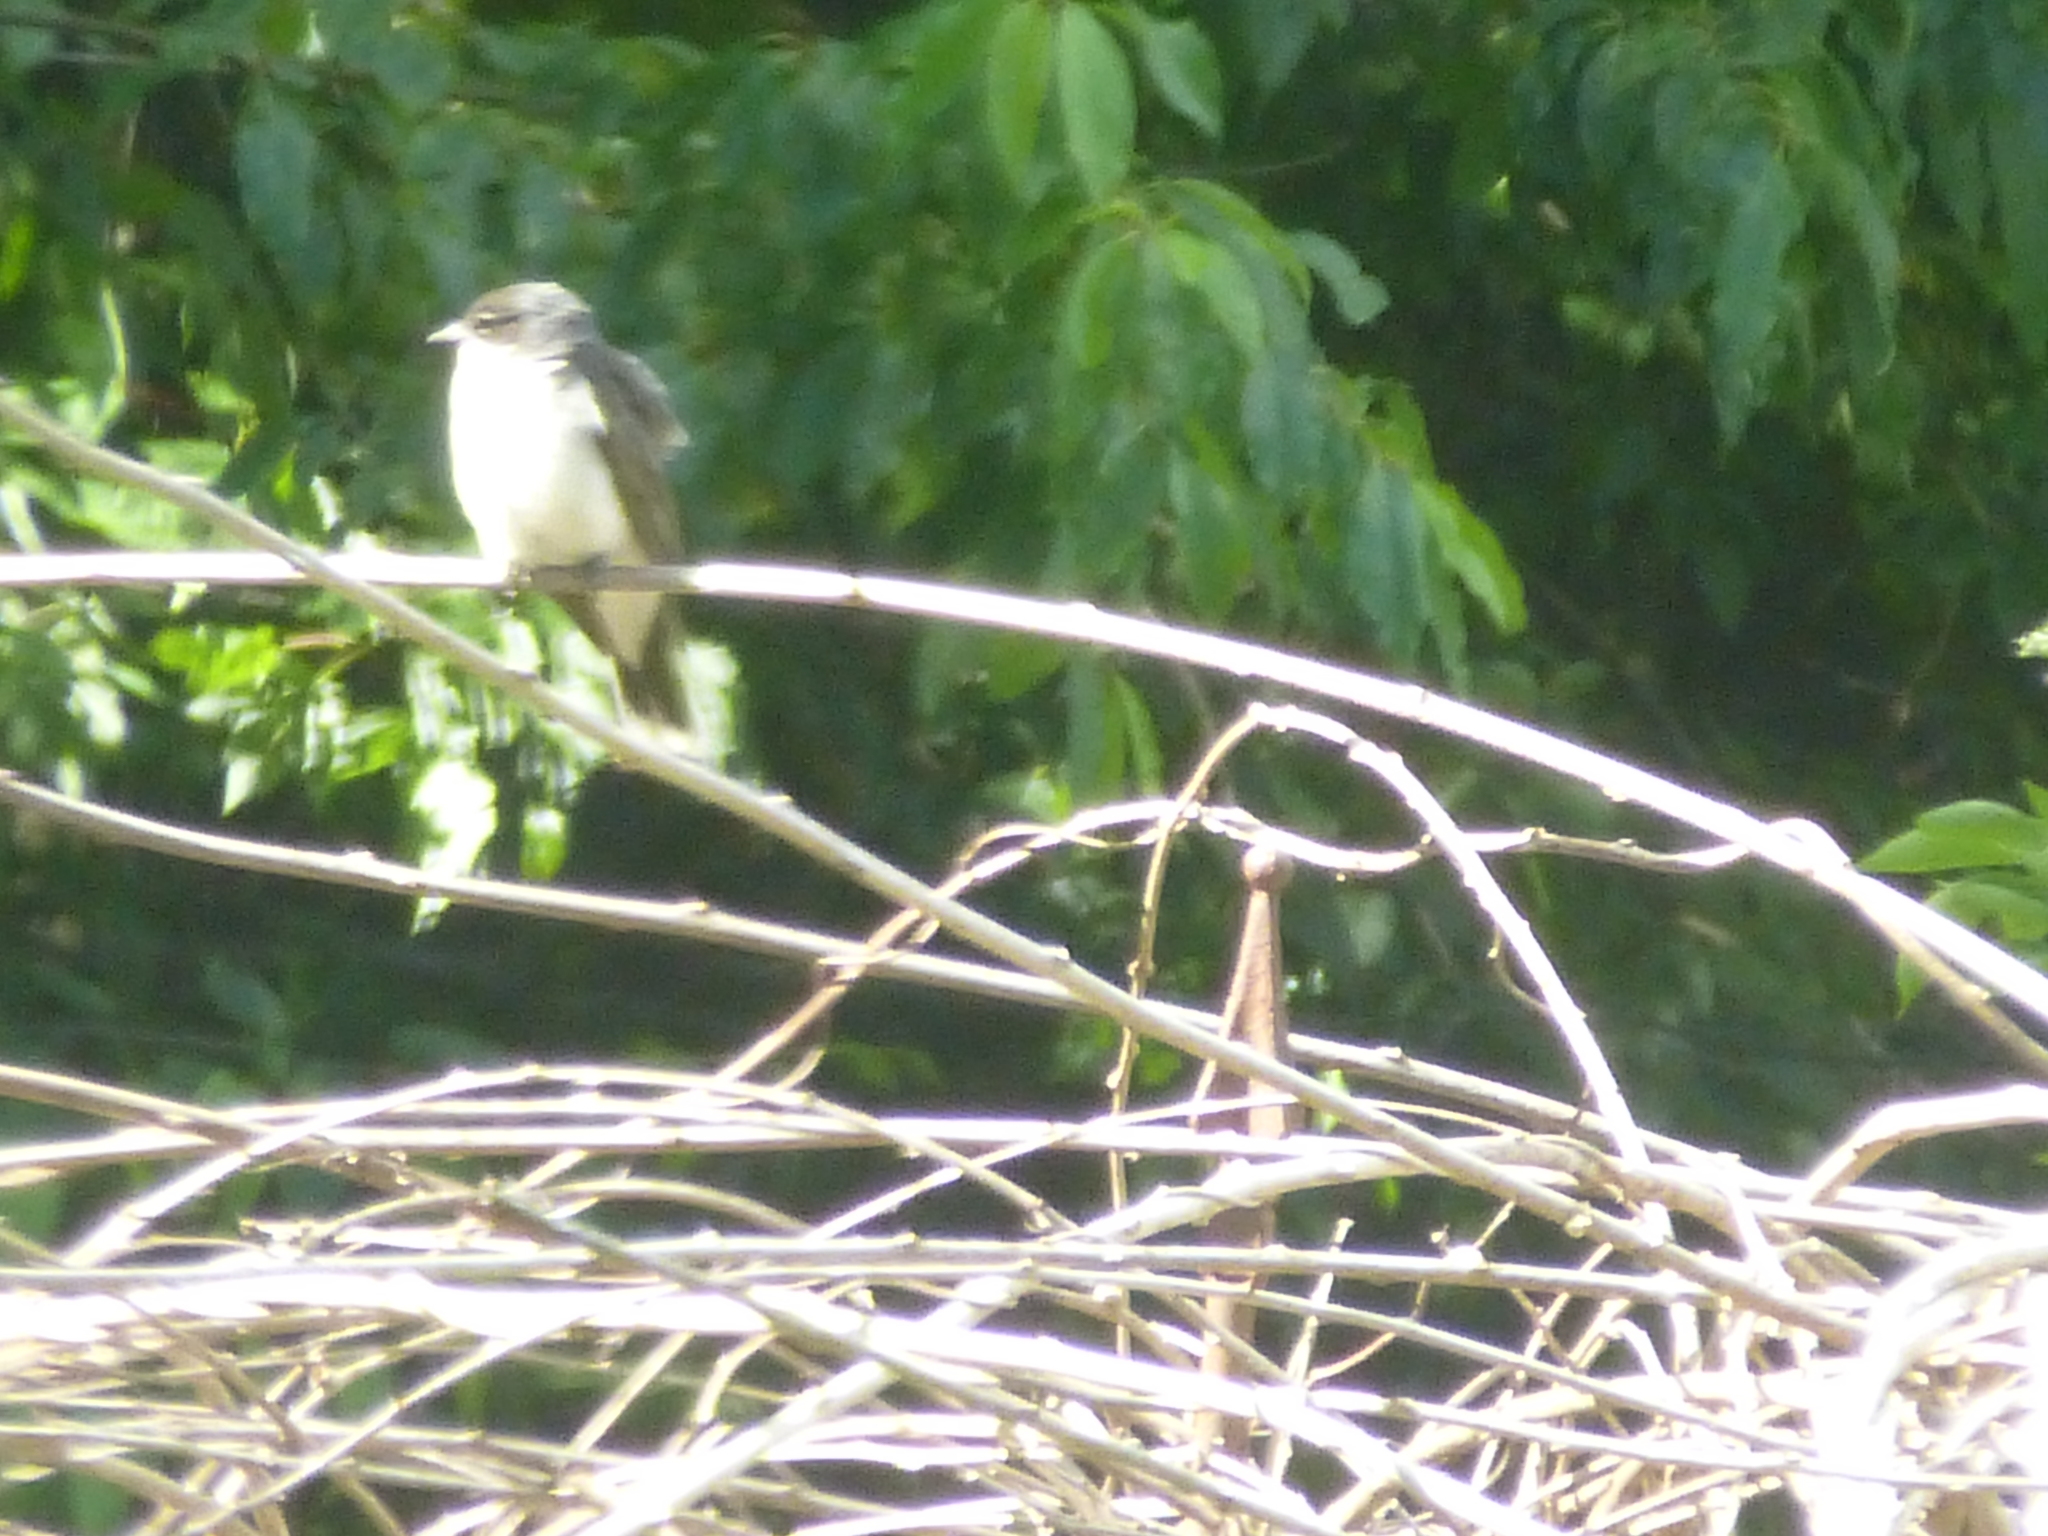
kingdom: Animalia
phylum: Chordata
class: Aves
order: Passeriformes
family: Tyrannidae
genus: Tyrannus
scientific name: Tyrannus tyrannus
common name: Eastern kingbird
